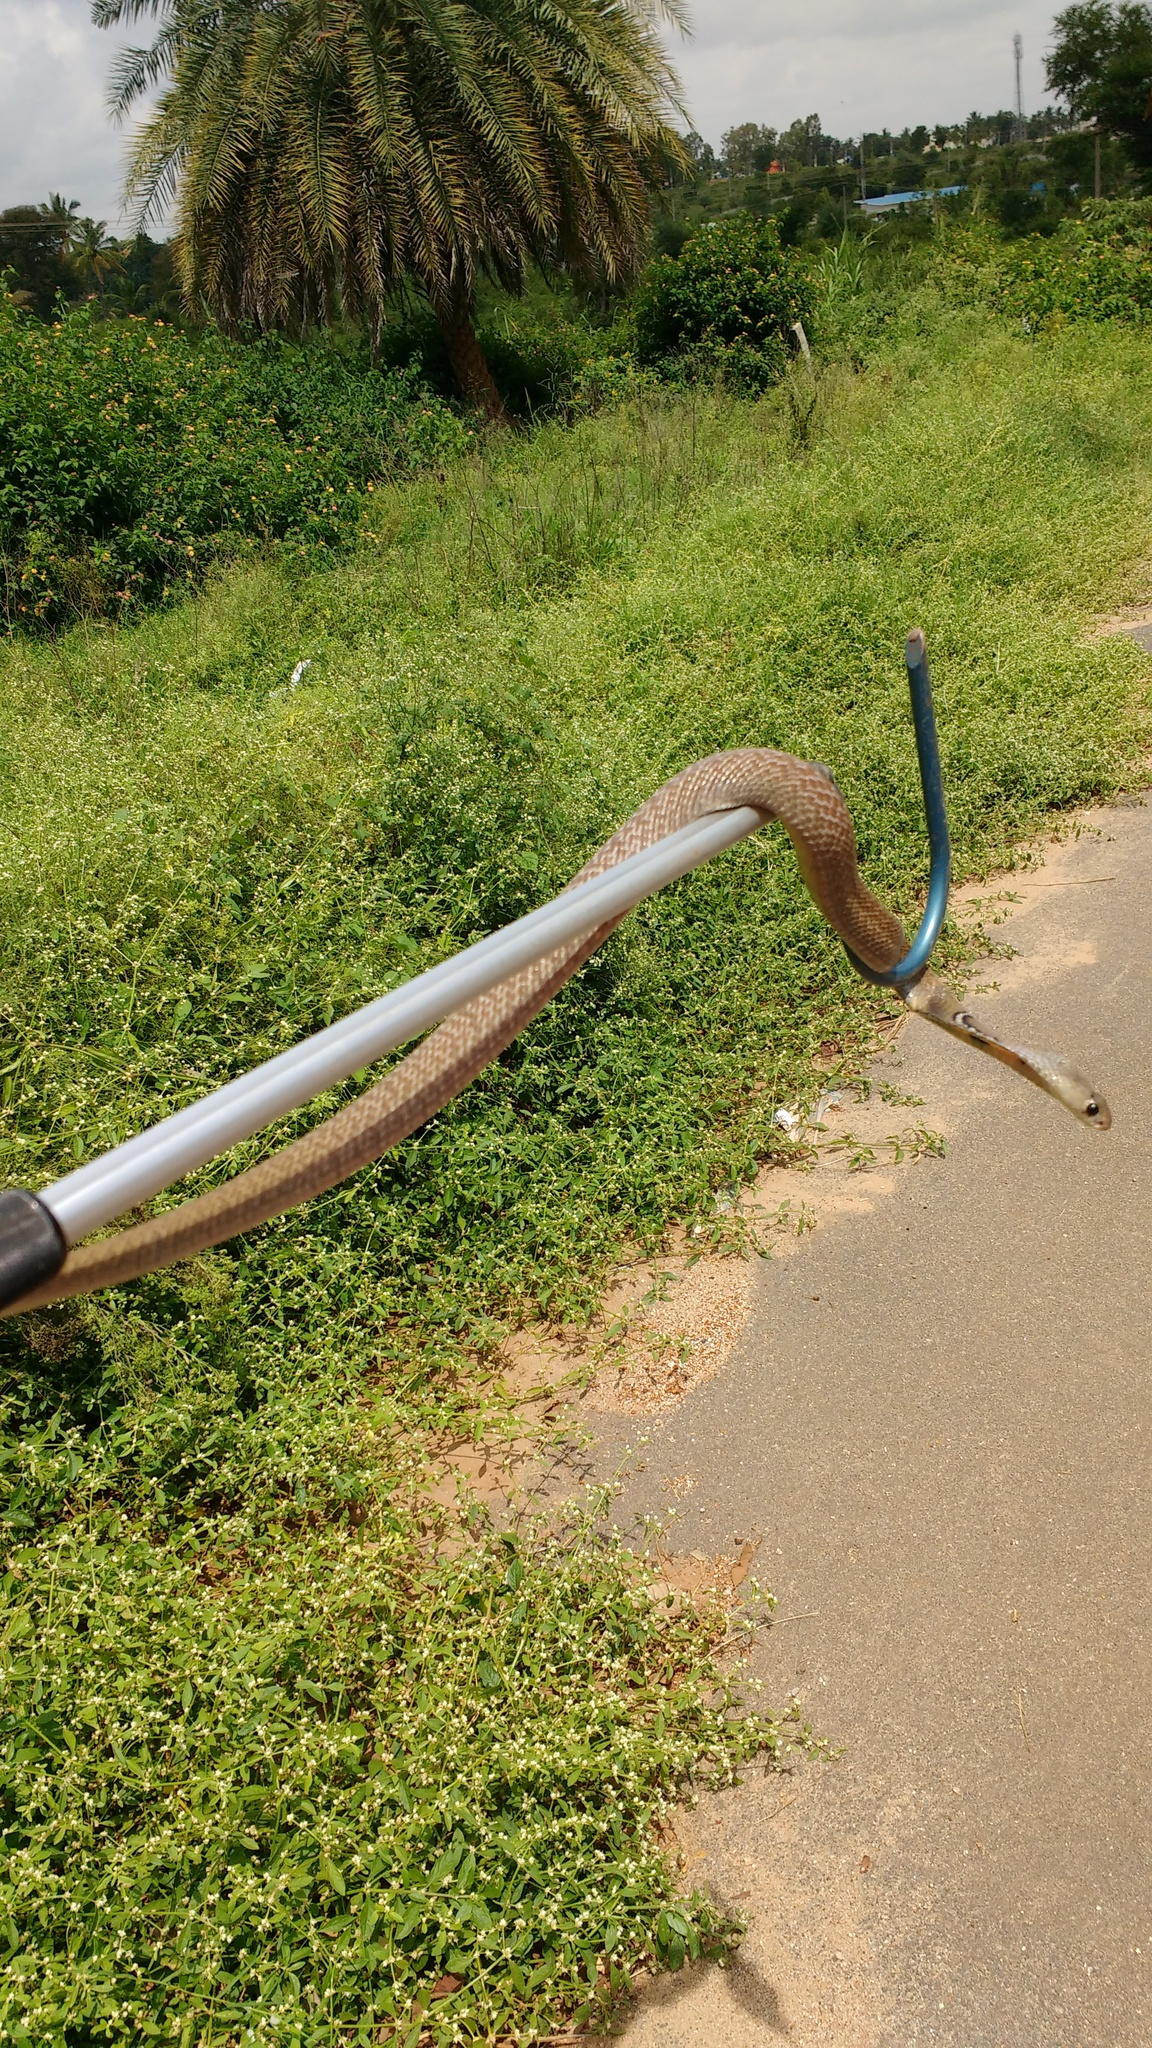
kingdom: Animalia
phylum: Chordata
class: Squamata
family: Elapidae
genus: Naja
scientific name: Naja naja
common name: Indian cobra
